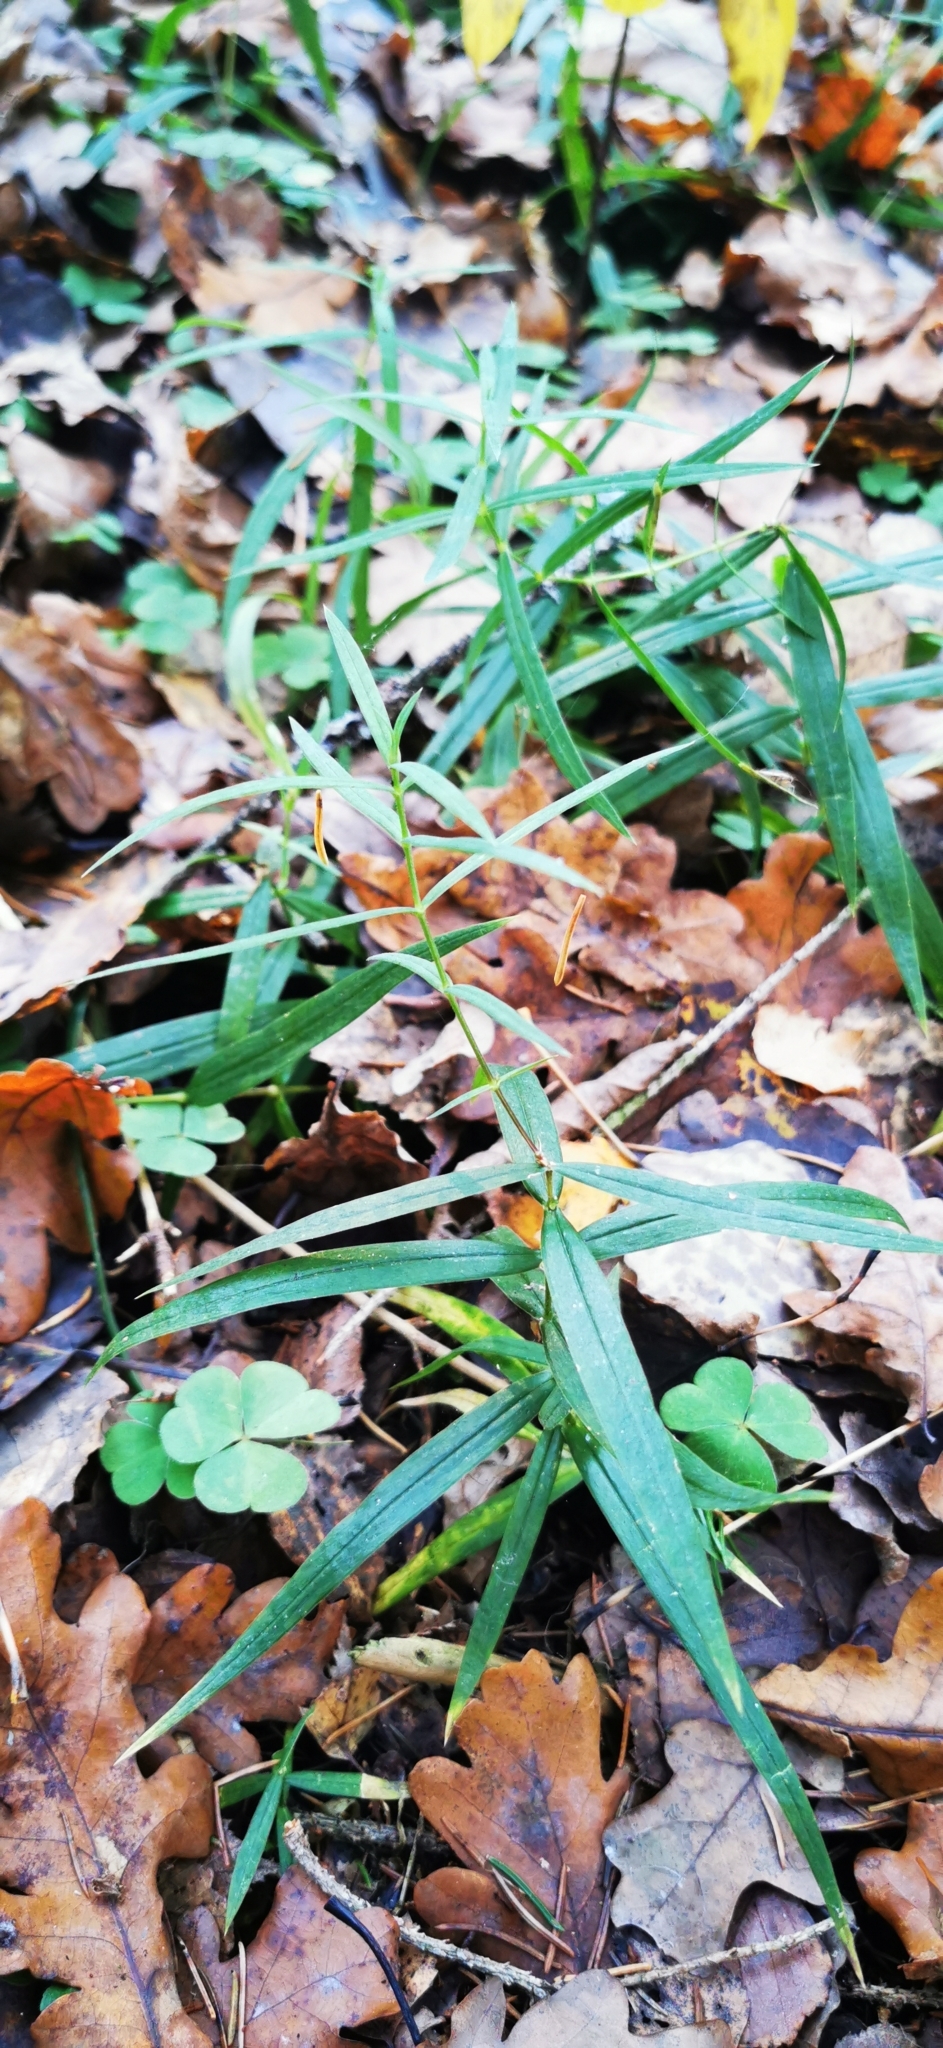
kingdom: Plantae
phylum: Tracheophyta
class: Magnoliopsida
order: Caryophyllales
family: Caryophyllaceae
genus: Rabelera
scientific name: Rabelera holostea
